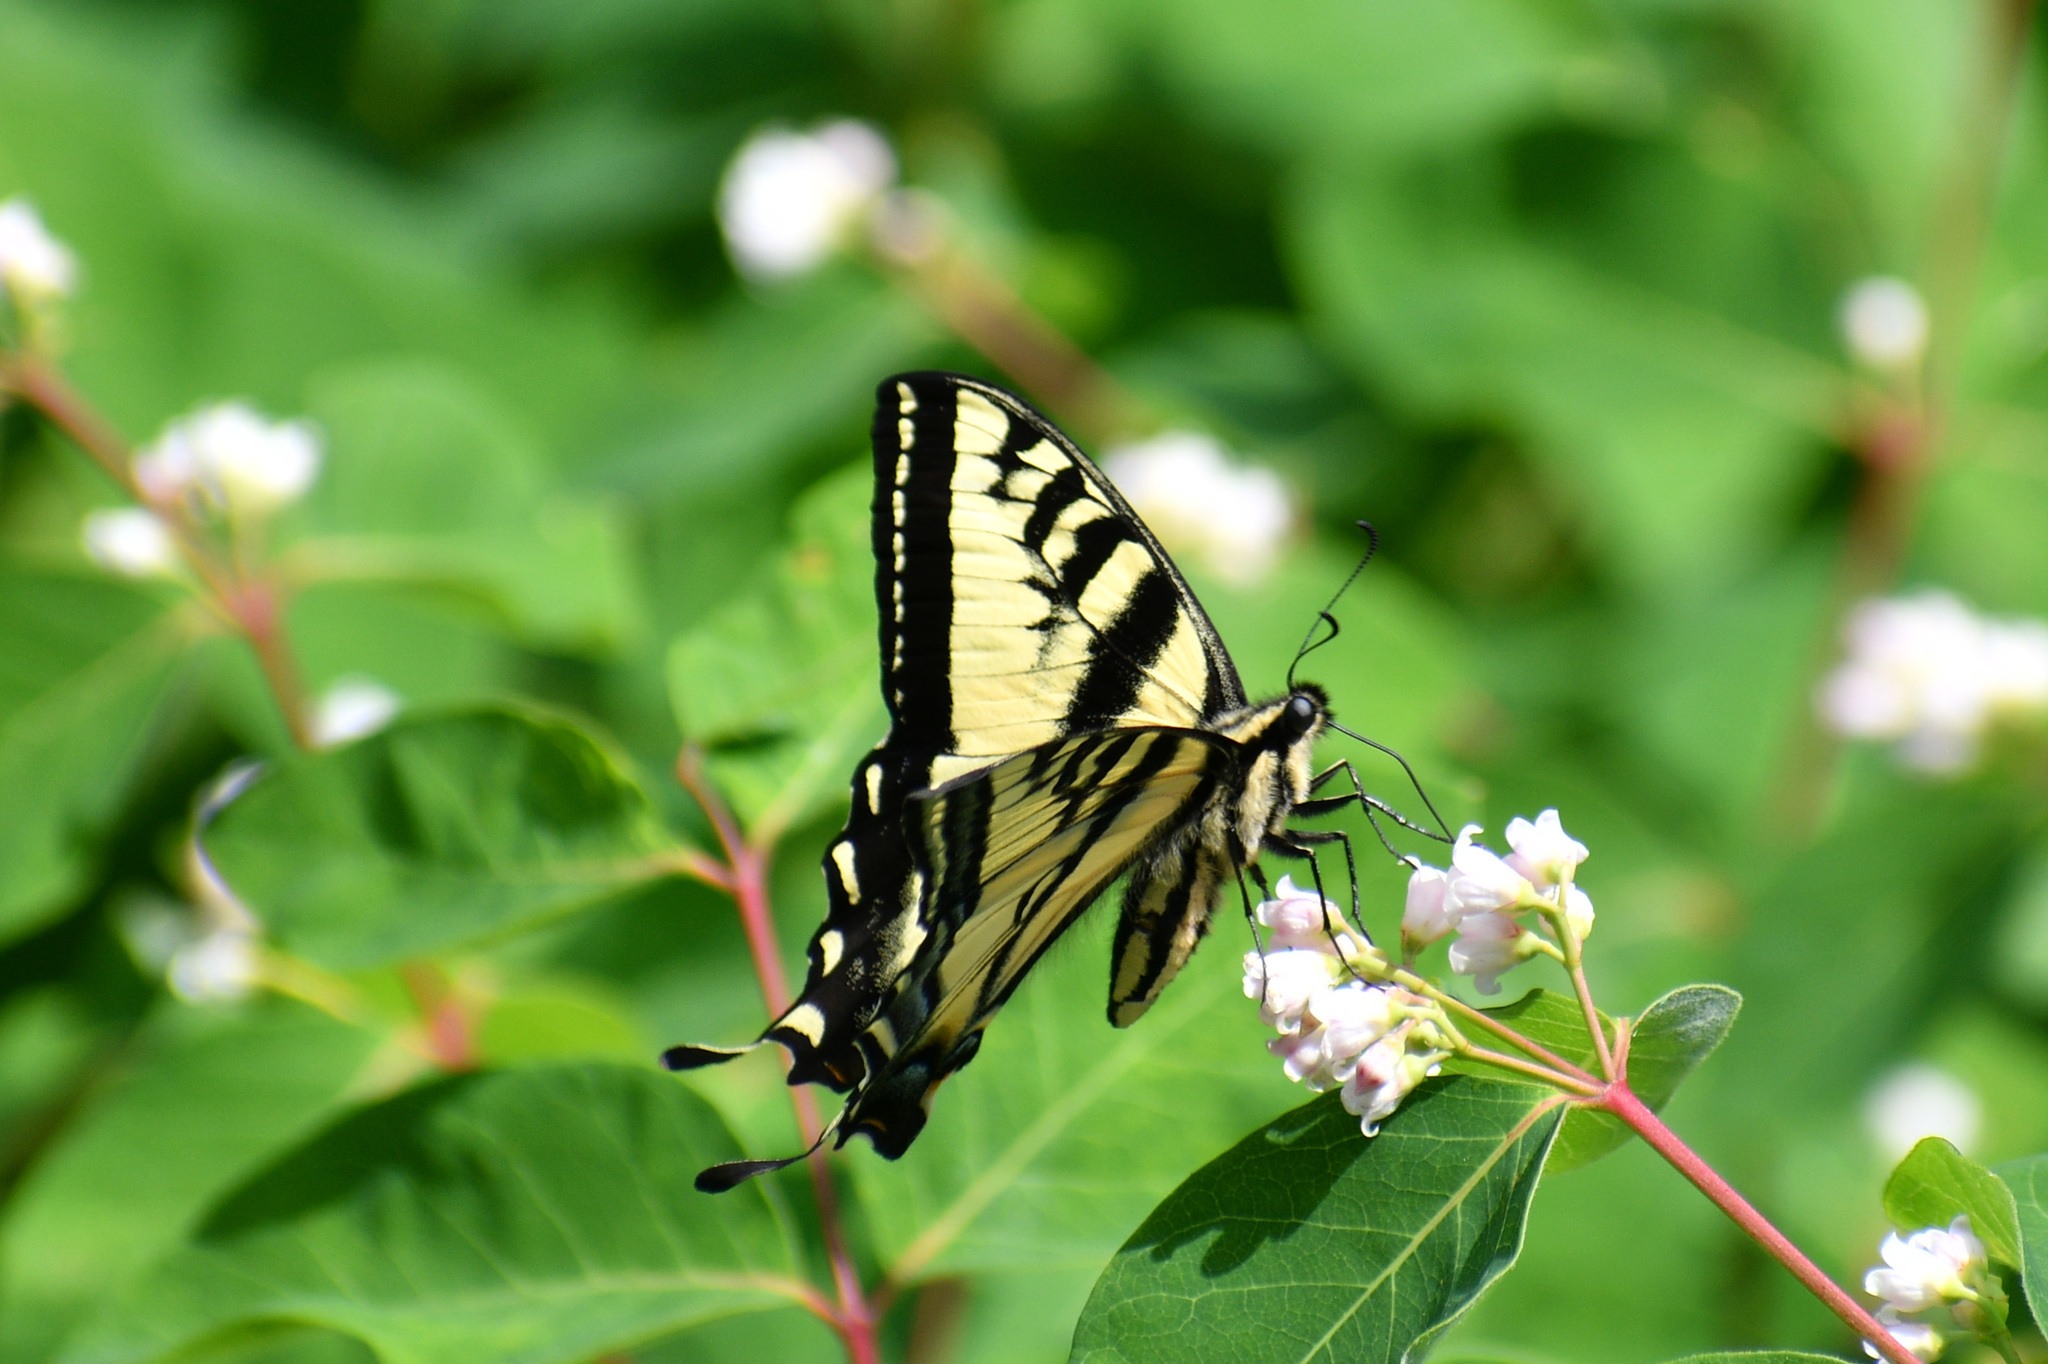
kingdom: Animalia
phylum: Arthropoda
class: Insecta
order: Lepidoptera
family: Papilionidae
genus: Papilio
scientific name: Papilio rutulus
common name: Western tiger swallowtail
